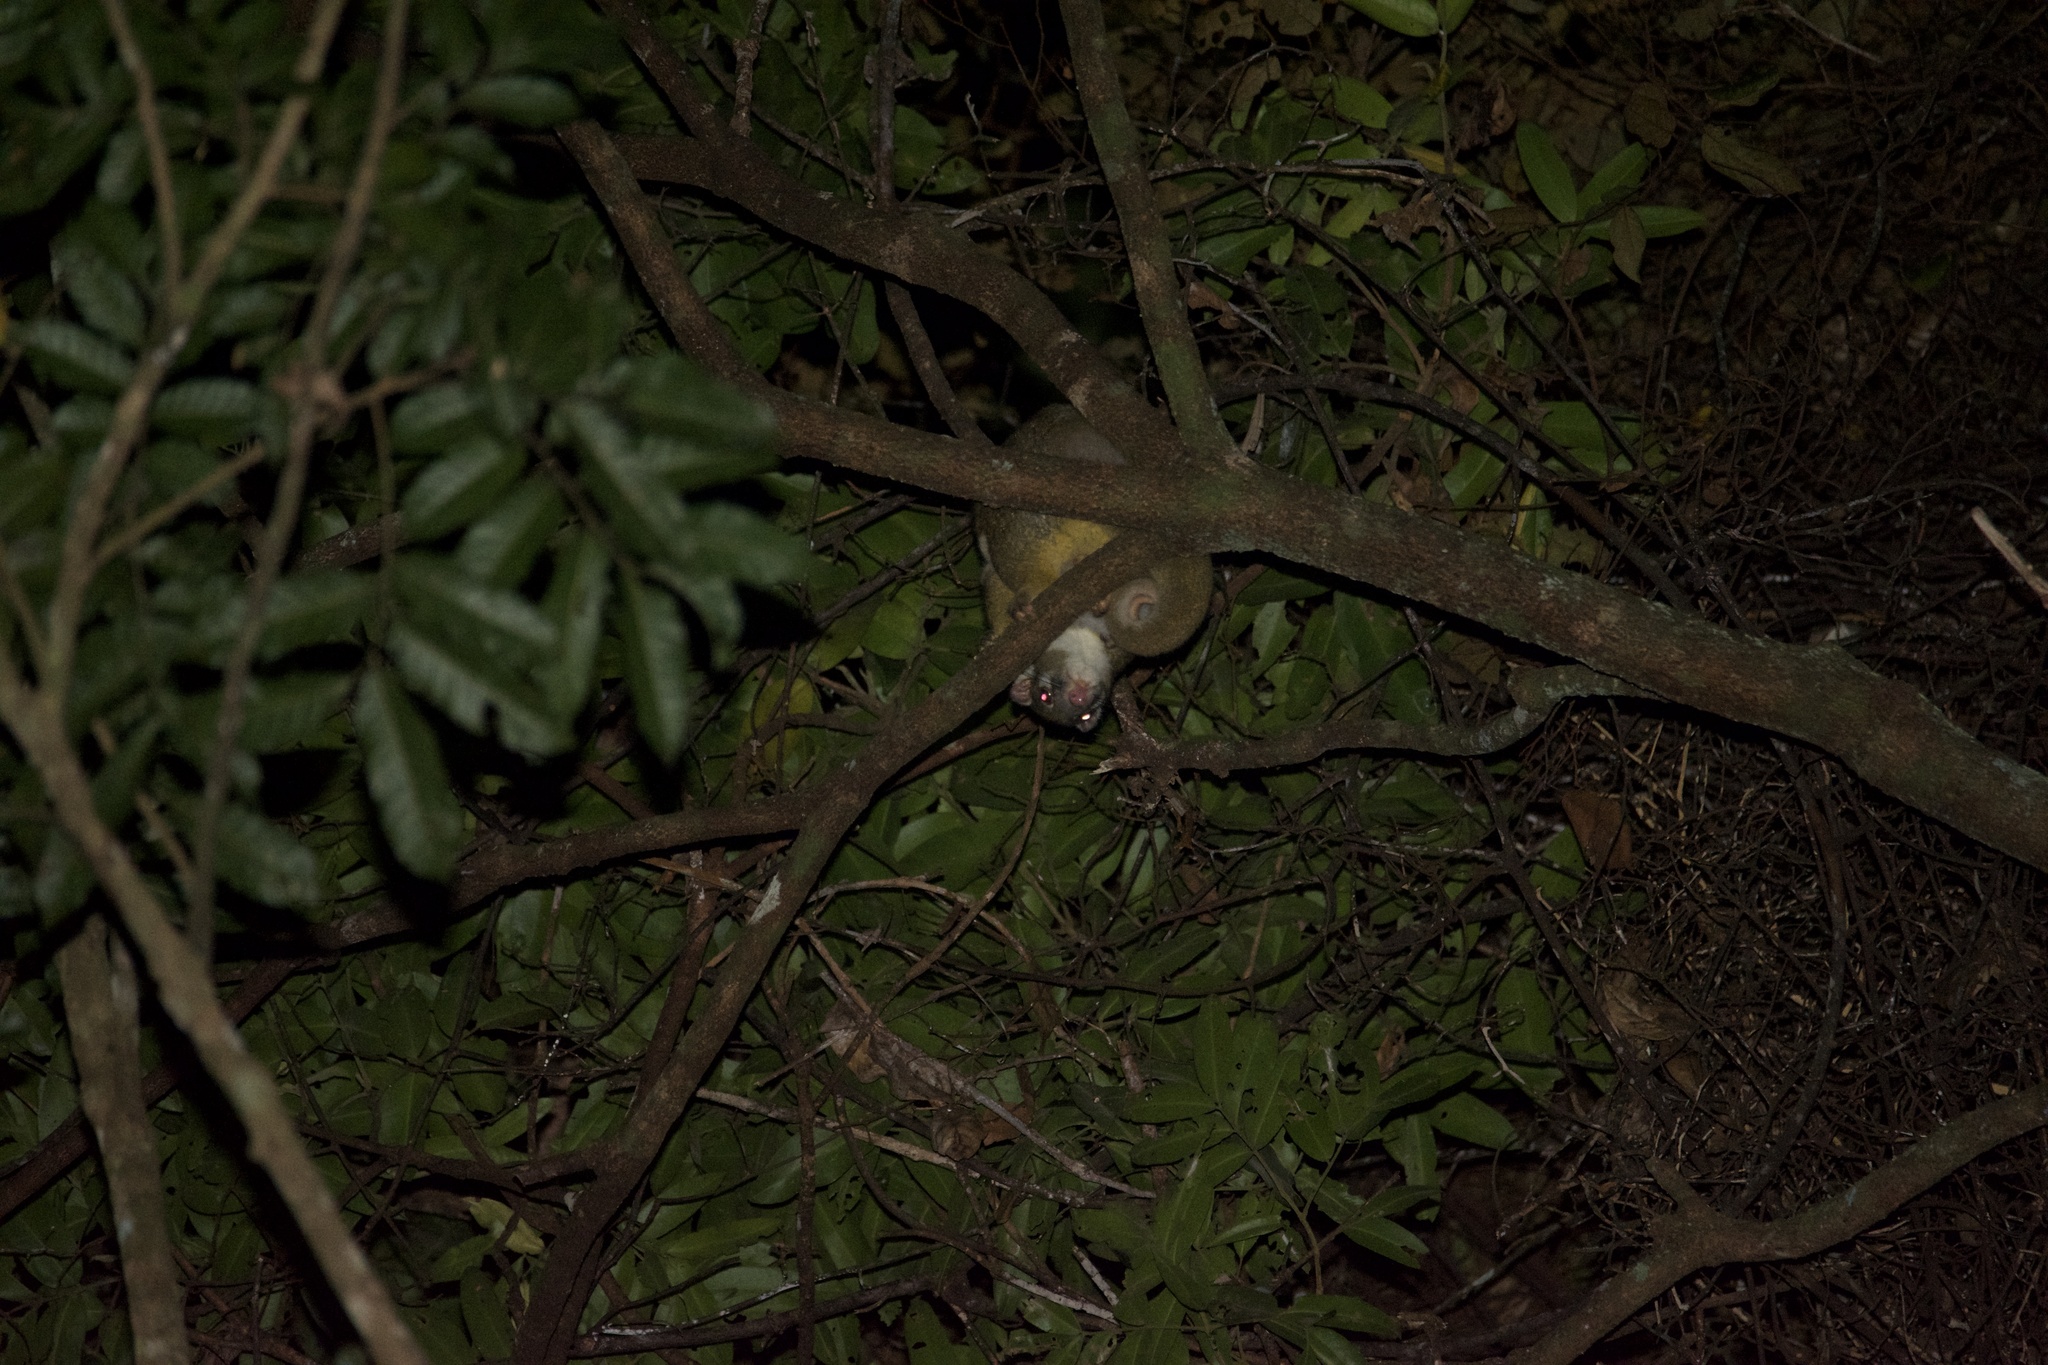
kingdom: Animalia
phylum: Chordata
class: Mammalia
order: Diprotodontia
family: Pseudocheiridae
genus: Pseudochirops
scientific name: Pseudochirops archeri
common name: Green ringtail
